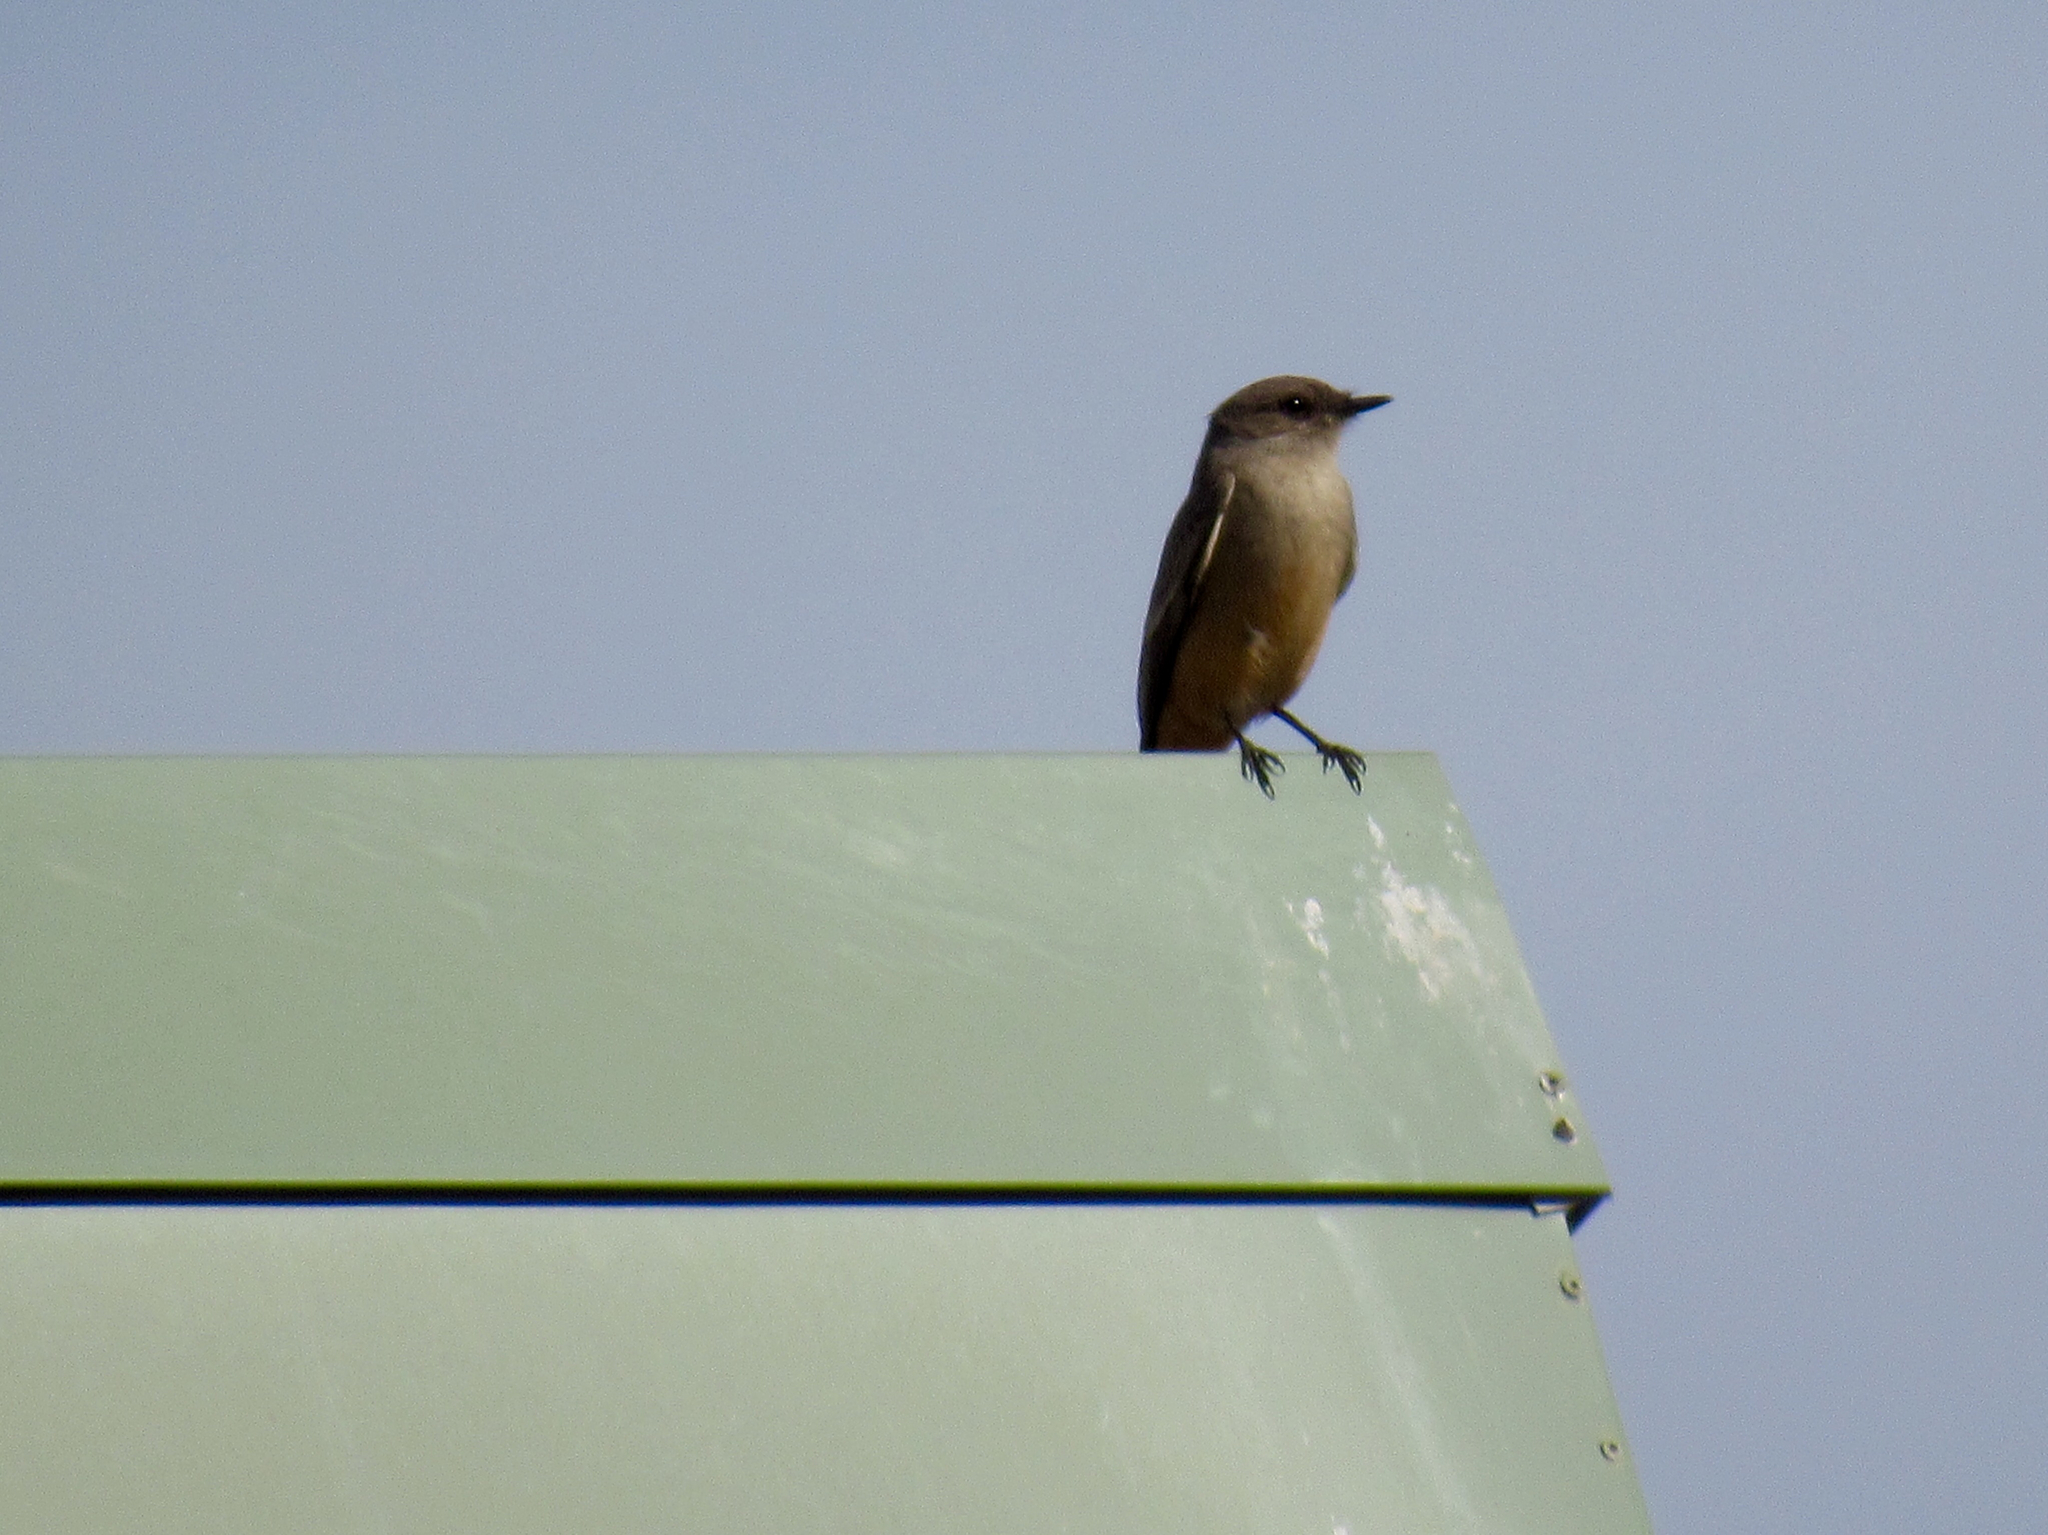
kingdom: Animalia
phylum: Chordata
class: Aves
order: Passeriformes
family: Tyrannidae
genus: Sayornis
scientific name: Sayornis saya
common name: Say's phoebe
